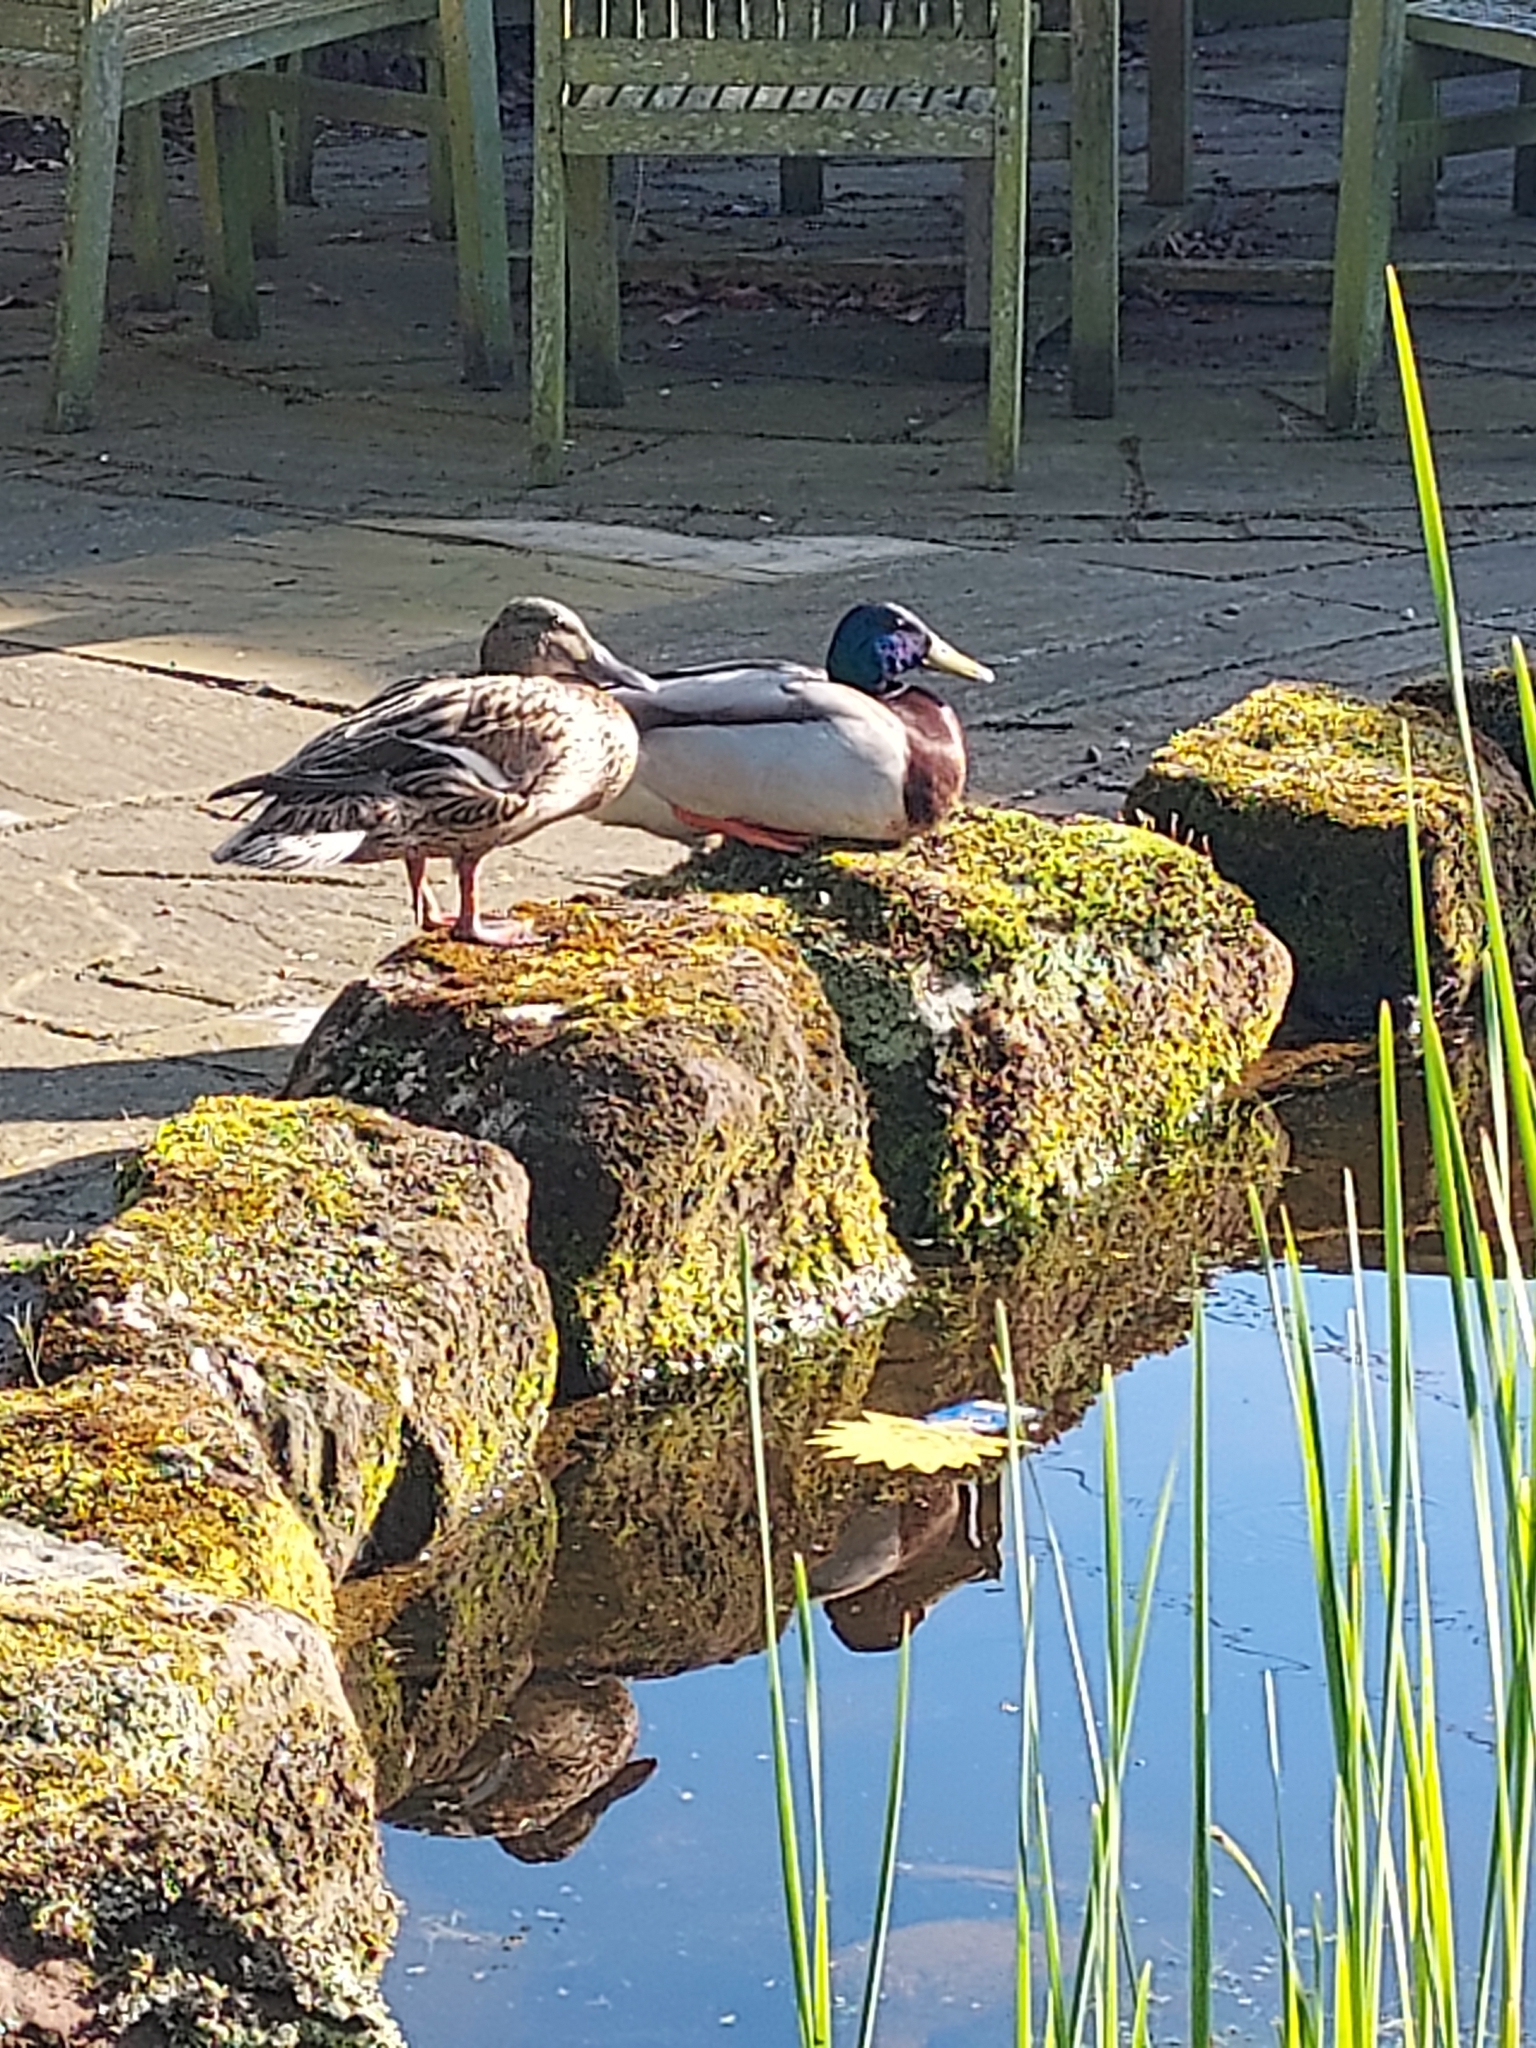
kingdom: Animalia
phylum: Chordata
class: Aves
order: Anseriformes
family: Anatidae
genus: Anas
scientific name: Anas platyrhynchos
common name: Mallard
